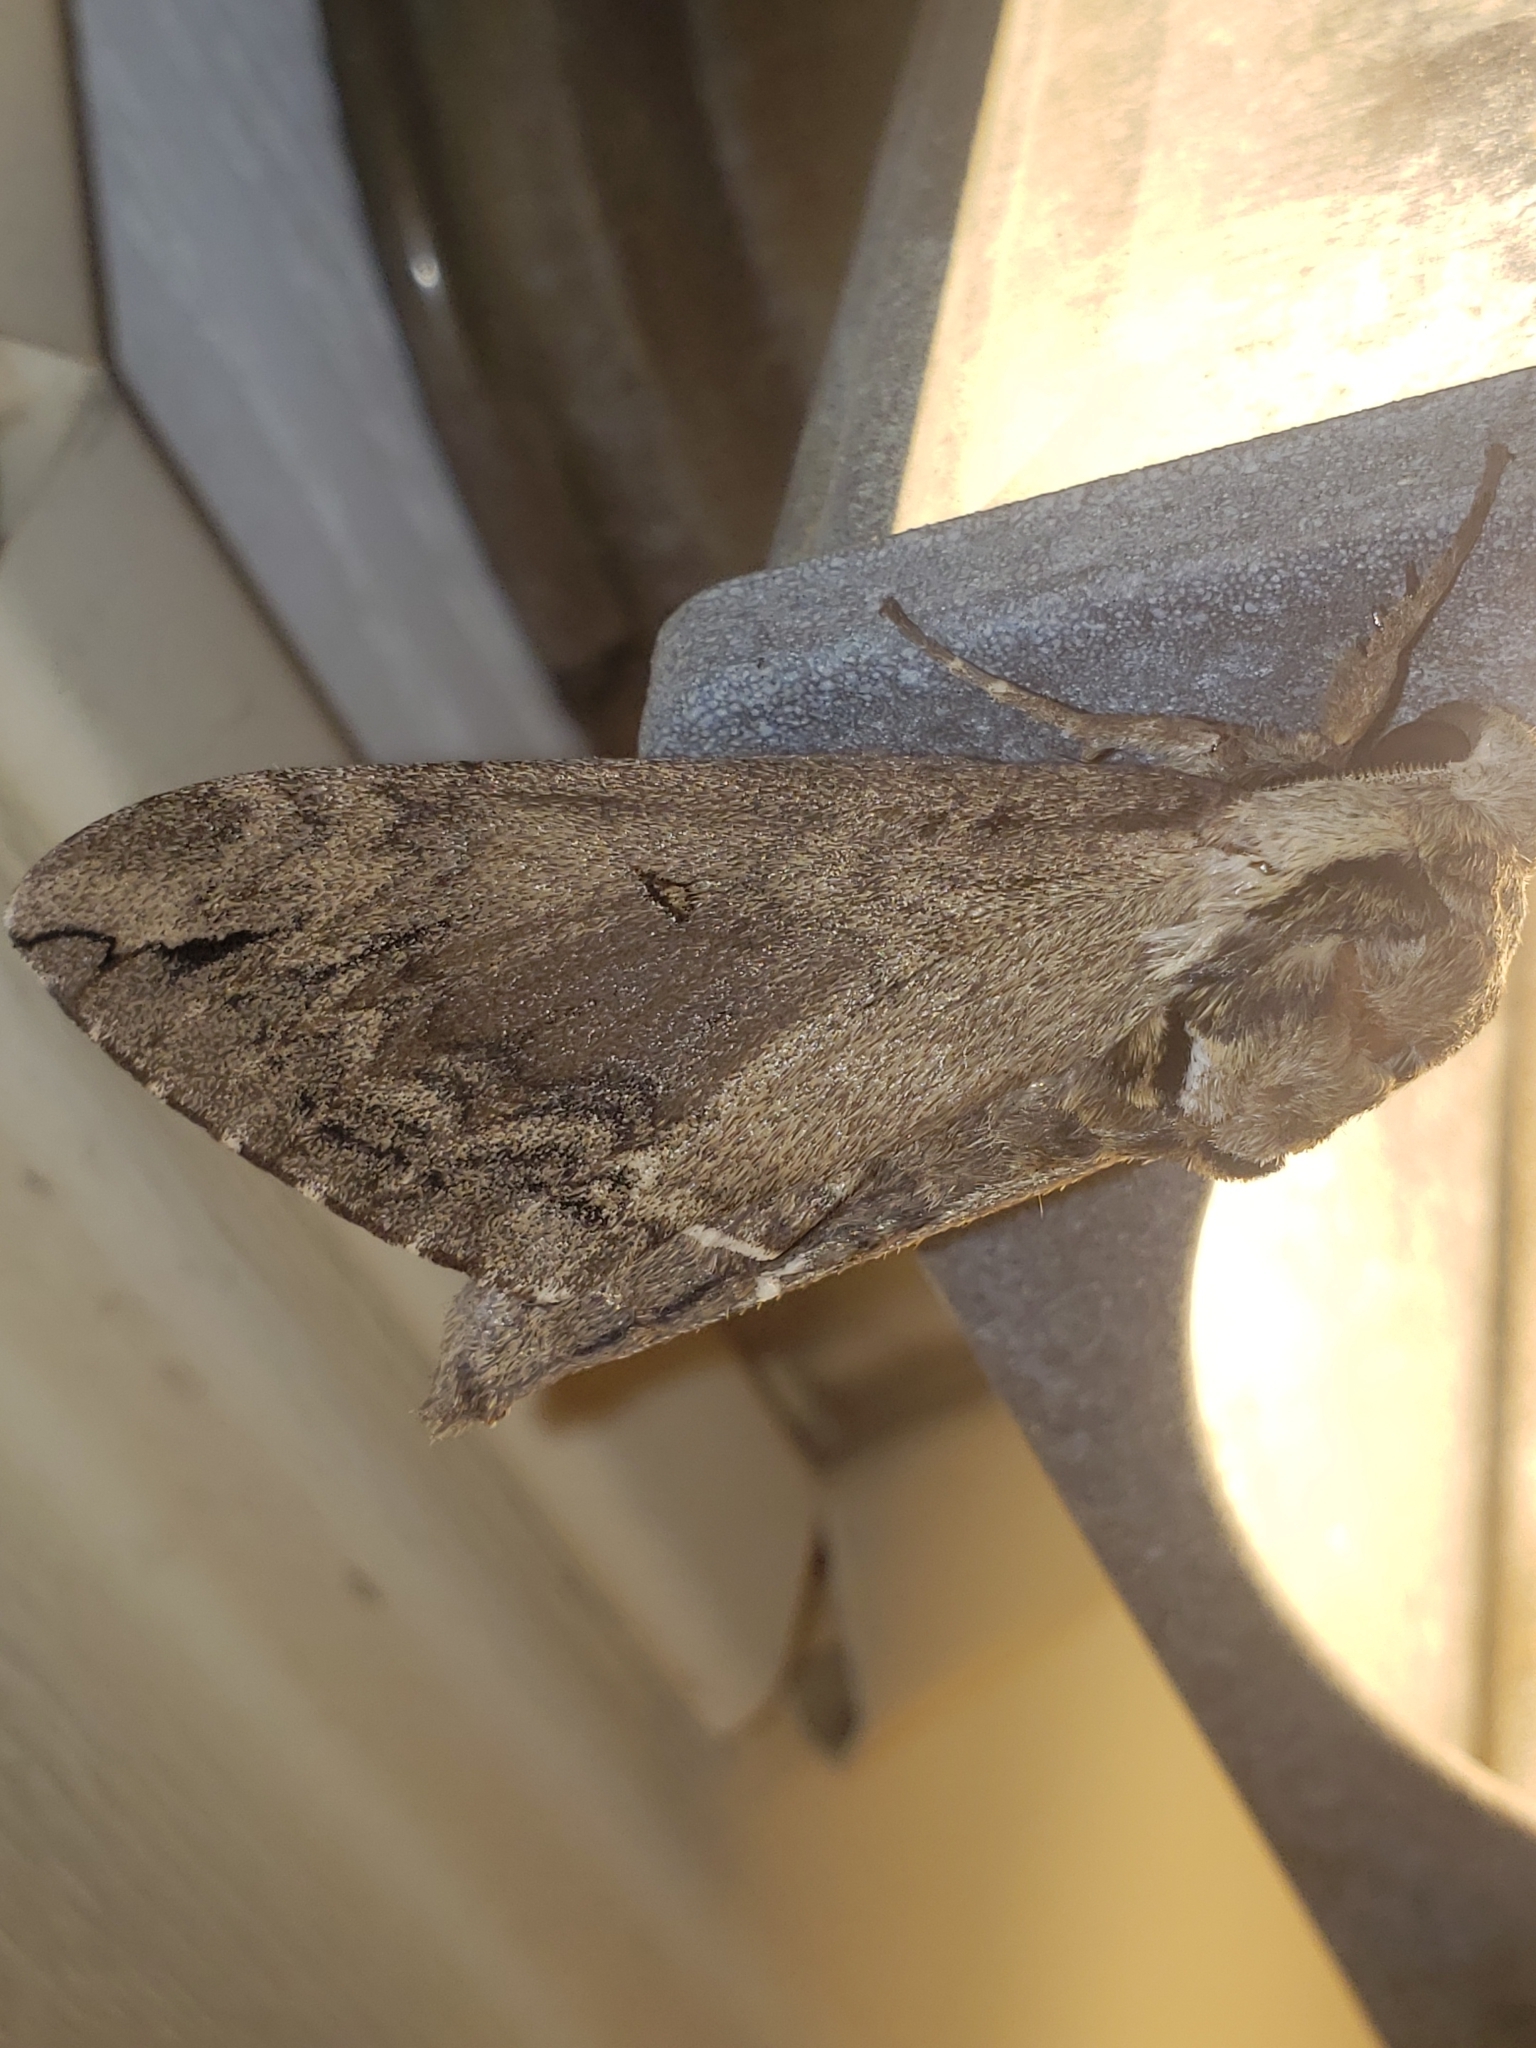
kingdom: Animalia
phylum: Arthropoda
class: Insecta
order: Lepidoptera
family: Sphingidae
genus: Ceratomia
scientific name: Ceratomia catalpae
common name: Catalpa hornworm
